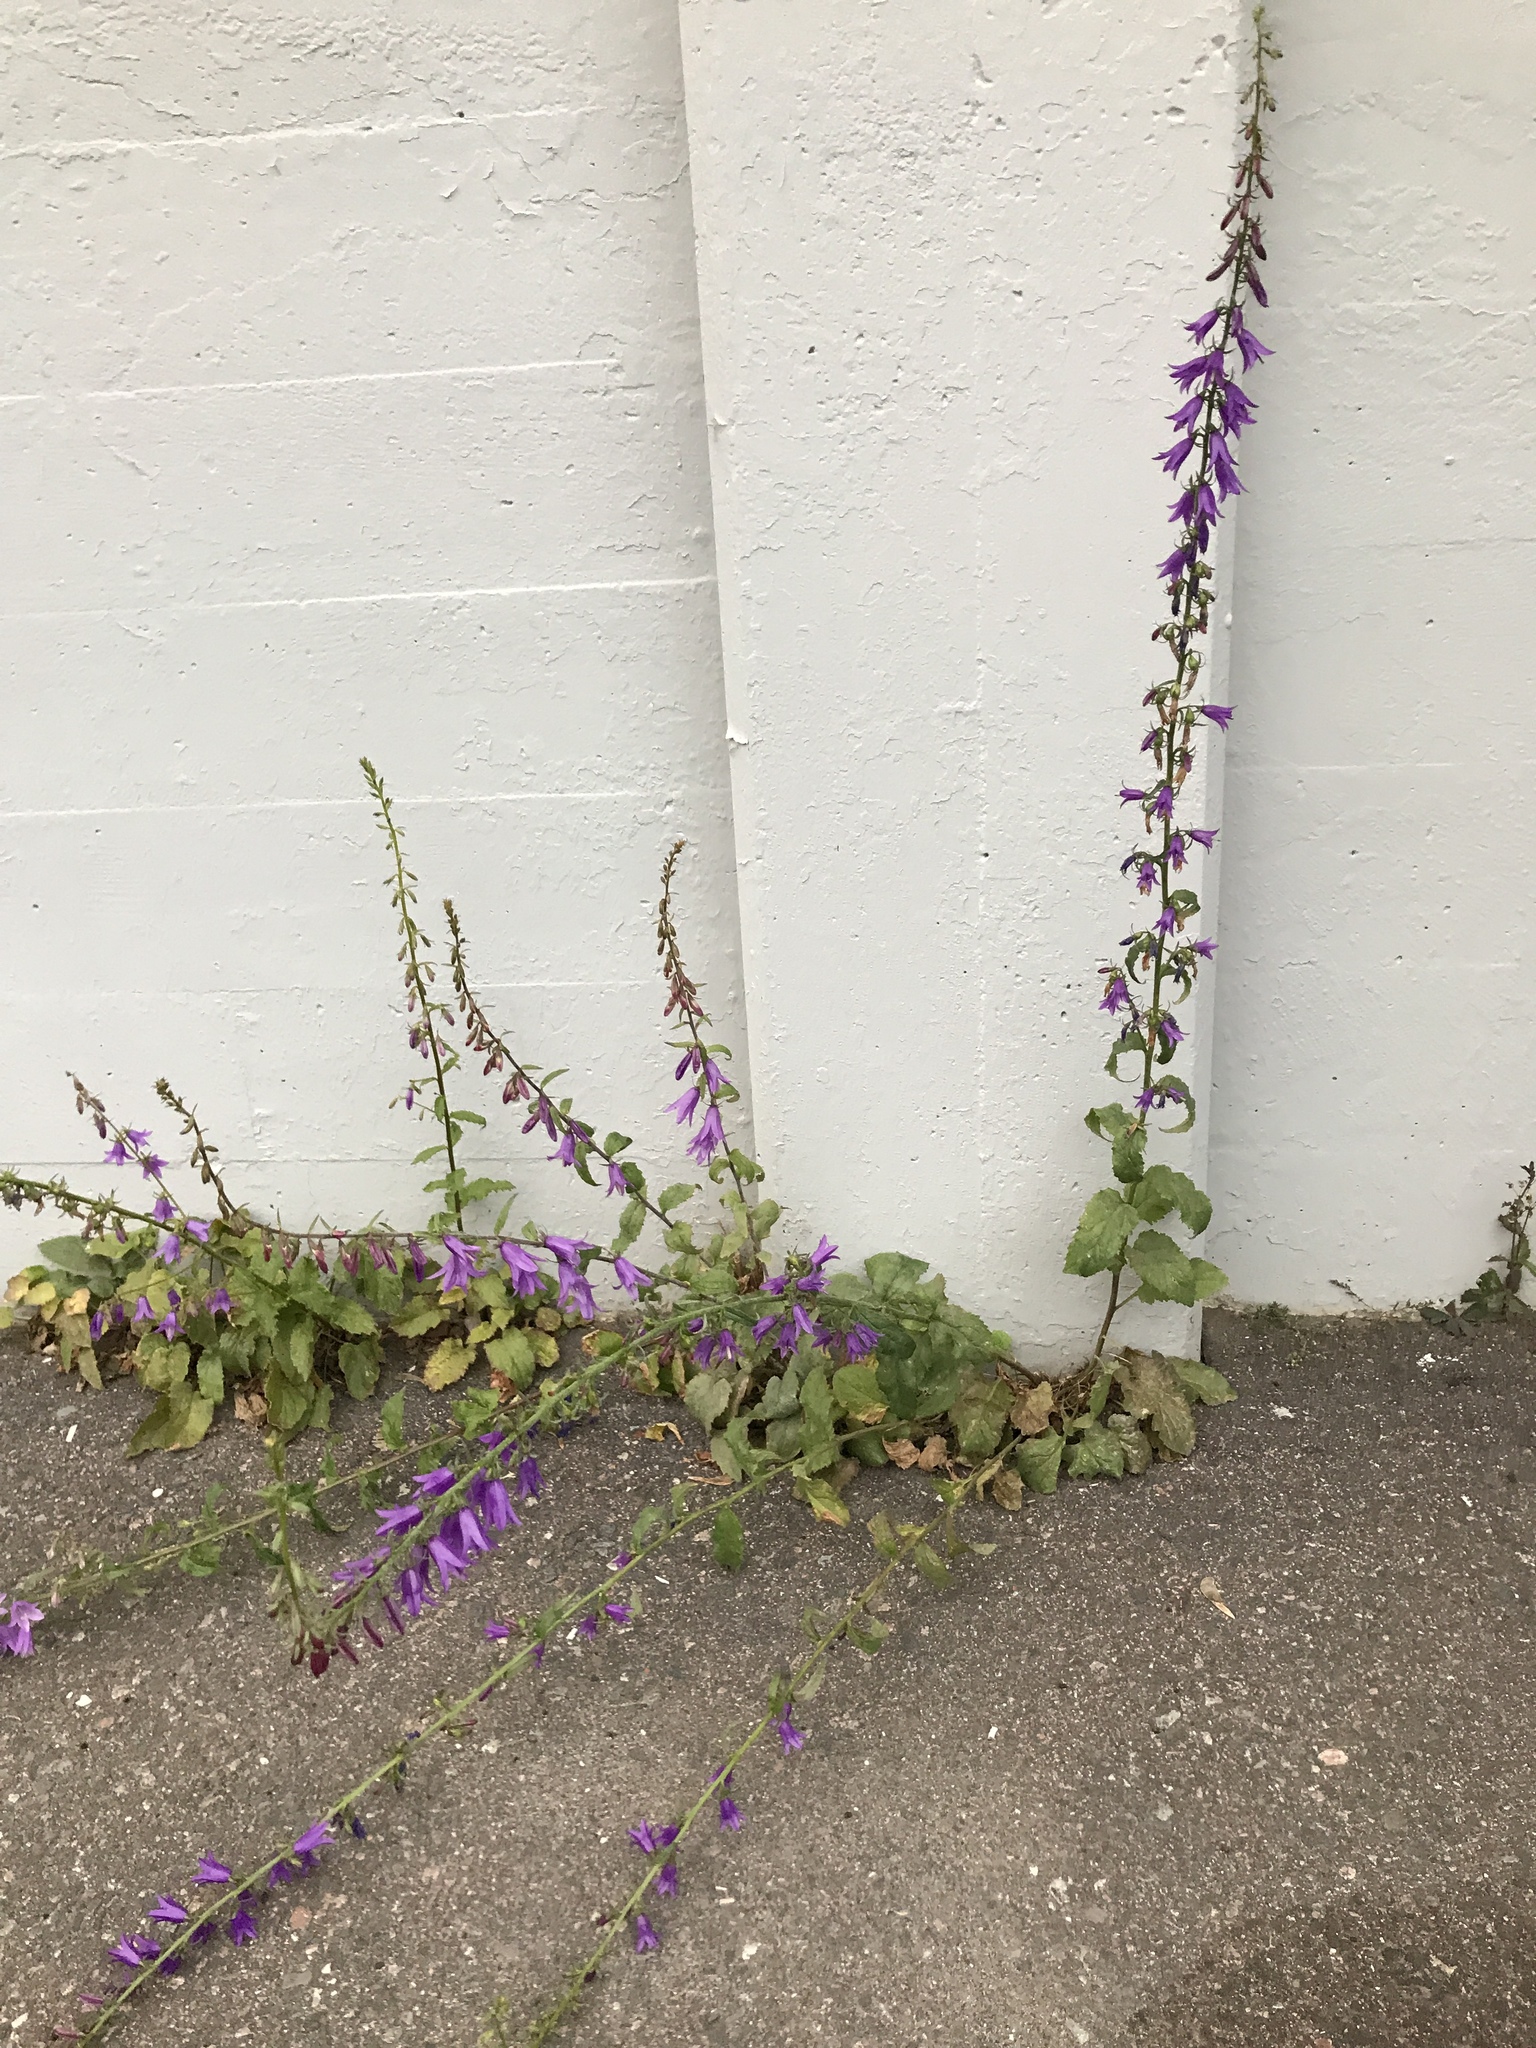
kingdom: Plantae
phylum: Tracheophyta
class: Magnoliopsida
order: Asterales
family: Campanulaceae
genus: Campanula
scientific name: Campanula rapunculoides
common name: Creeping bellflower
